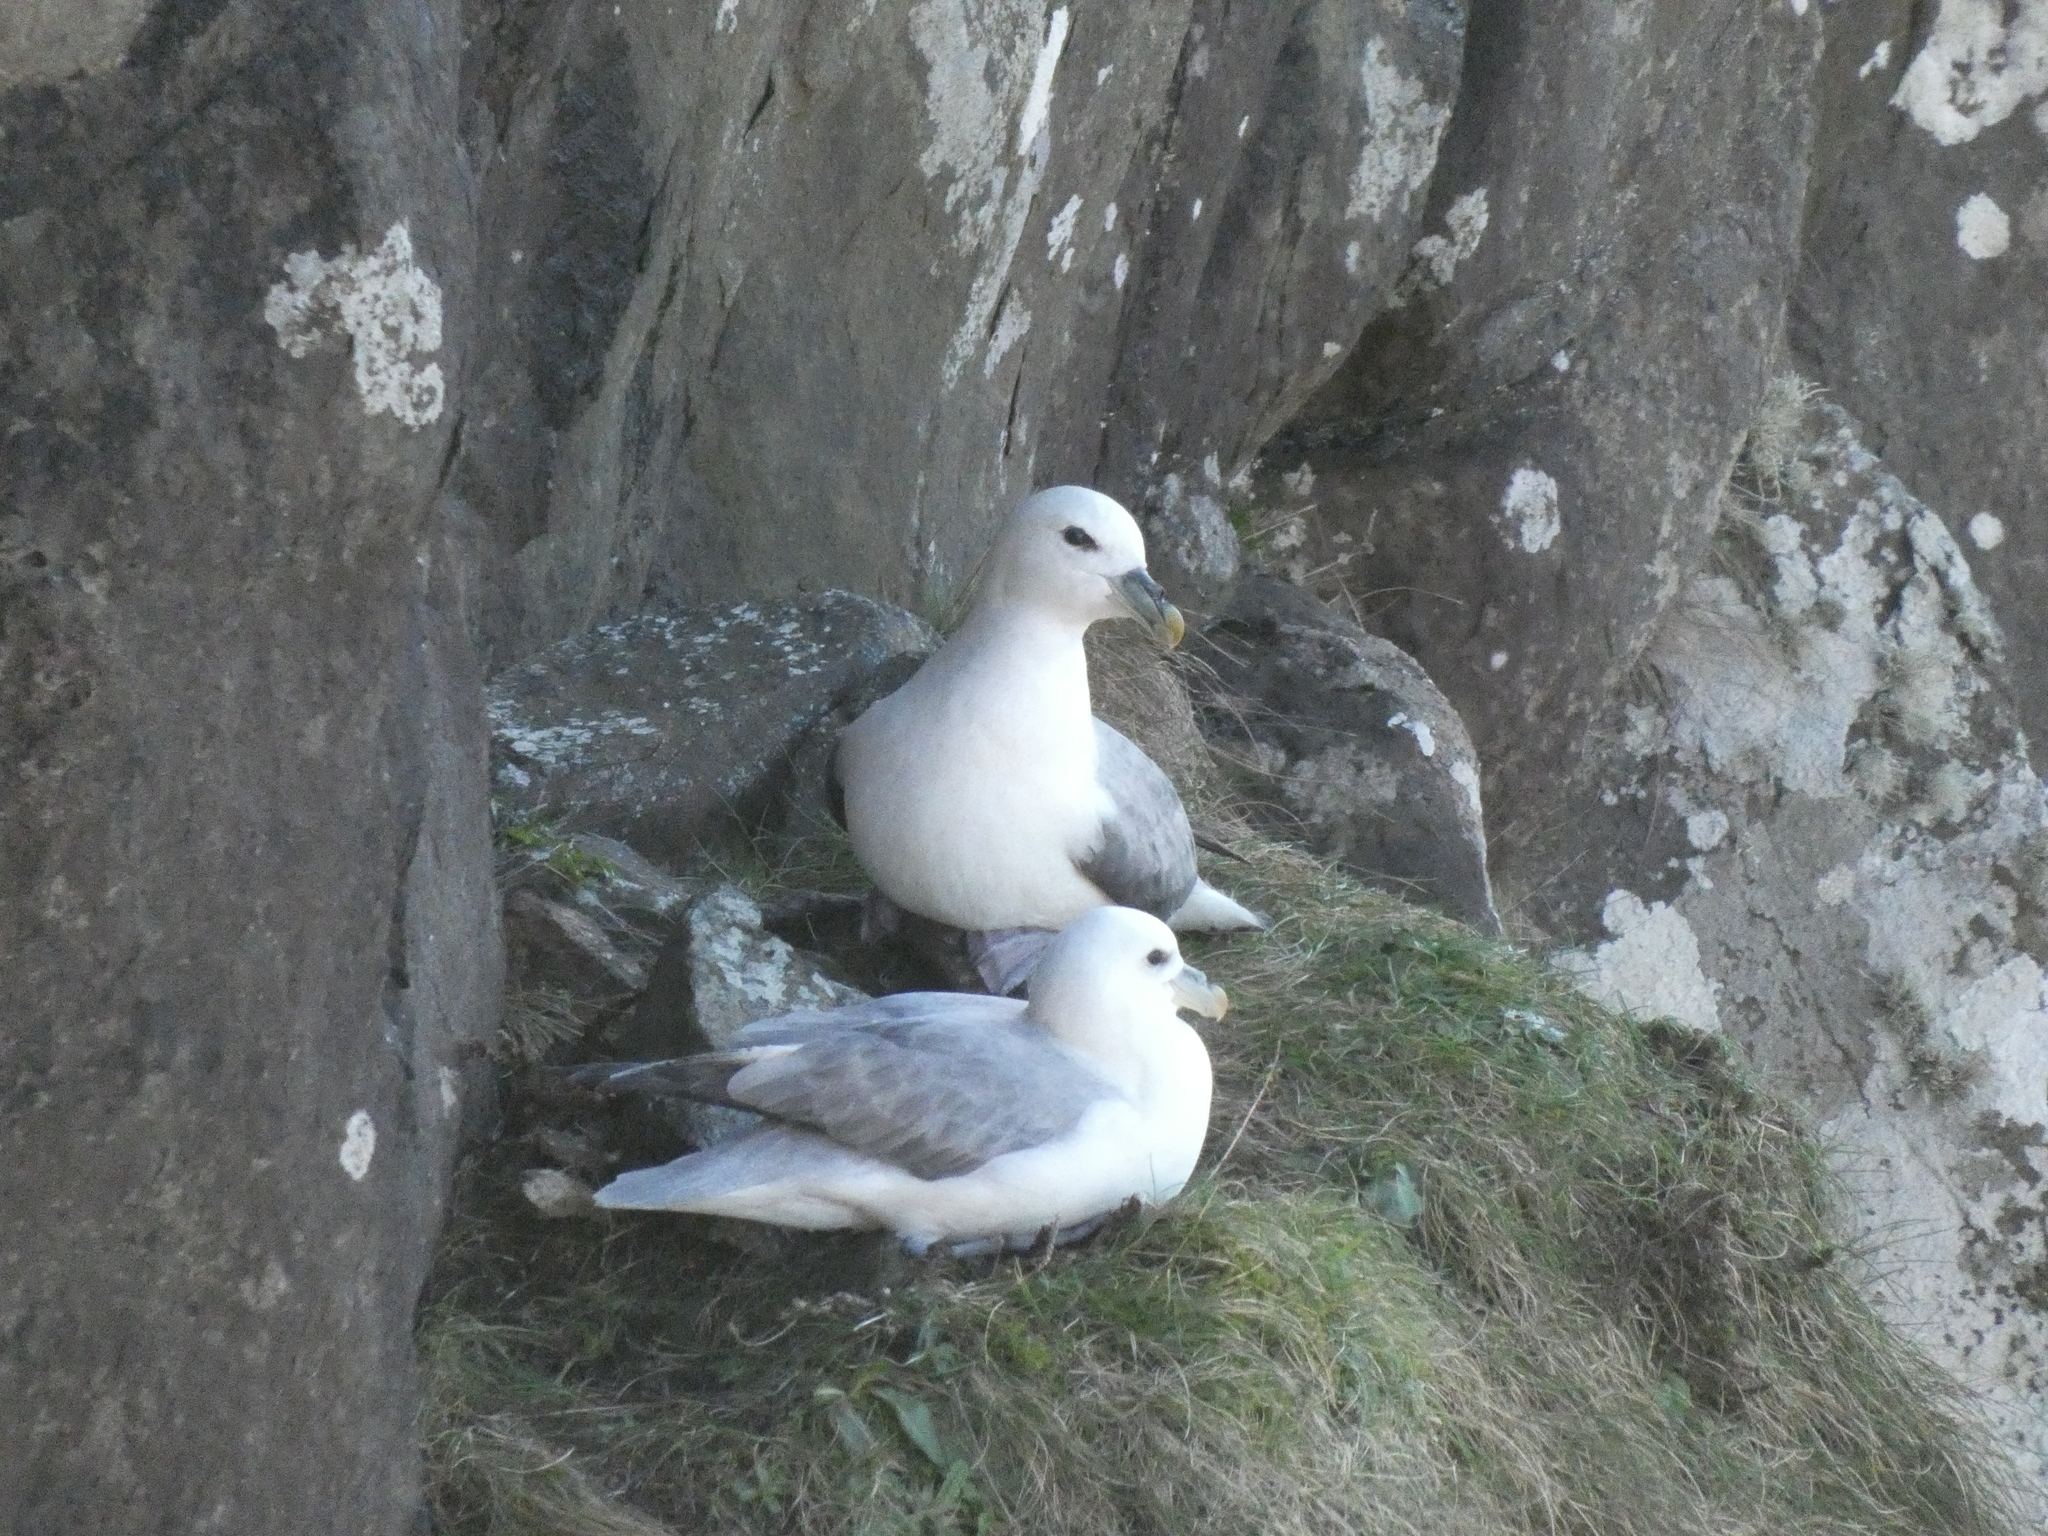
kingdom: Animalia
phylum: Chordata
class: Aves
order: Procellariiformes
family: Procellariidae
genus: Fulmarus
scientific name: Fulmarus glacialis
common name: Northern fulmar
